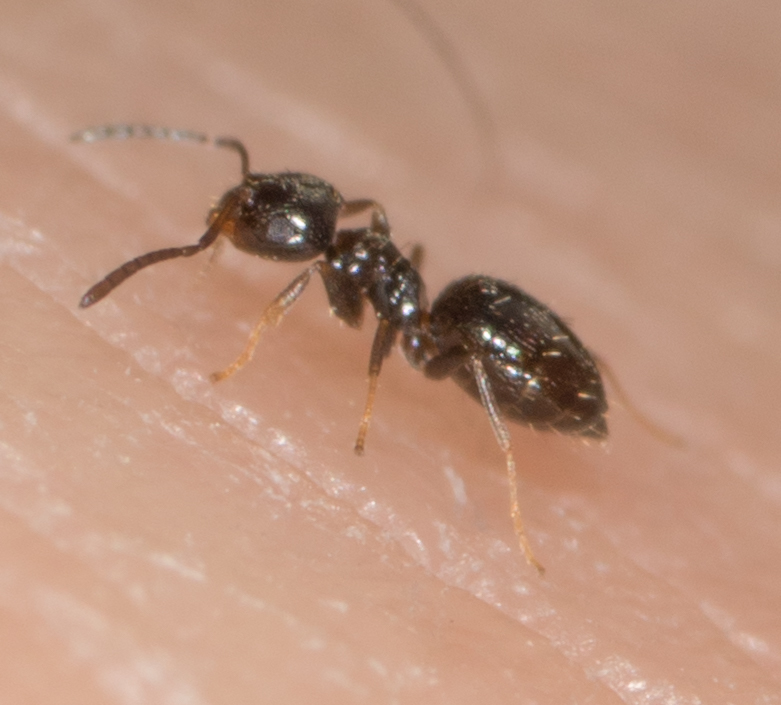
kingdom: Animalia
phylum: Arthropoda
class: Insecta
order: Hymenoptera
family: Formicidae
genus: Brachymyrmex
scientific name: Brachymyrmex patagonicus
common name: Dark rover ant
